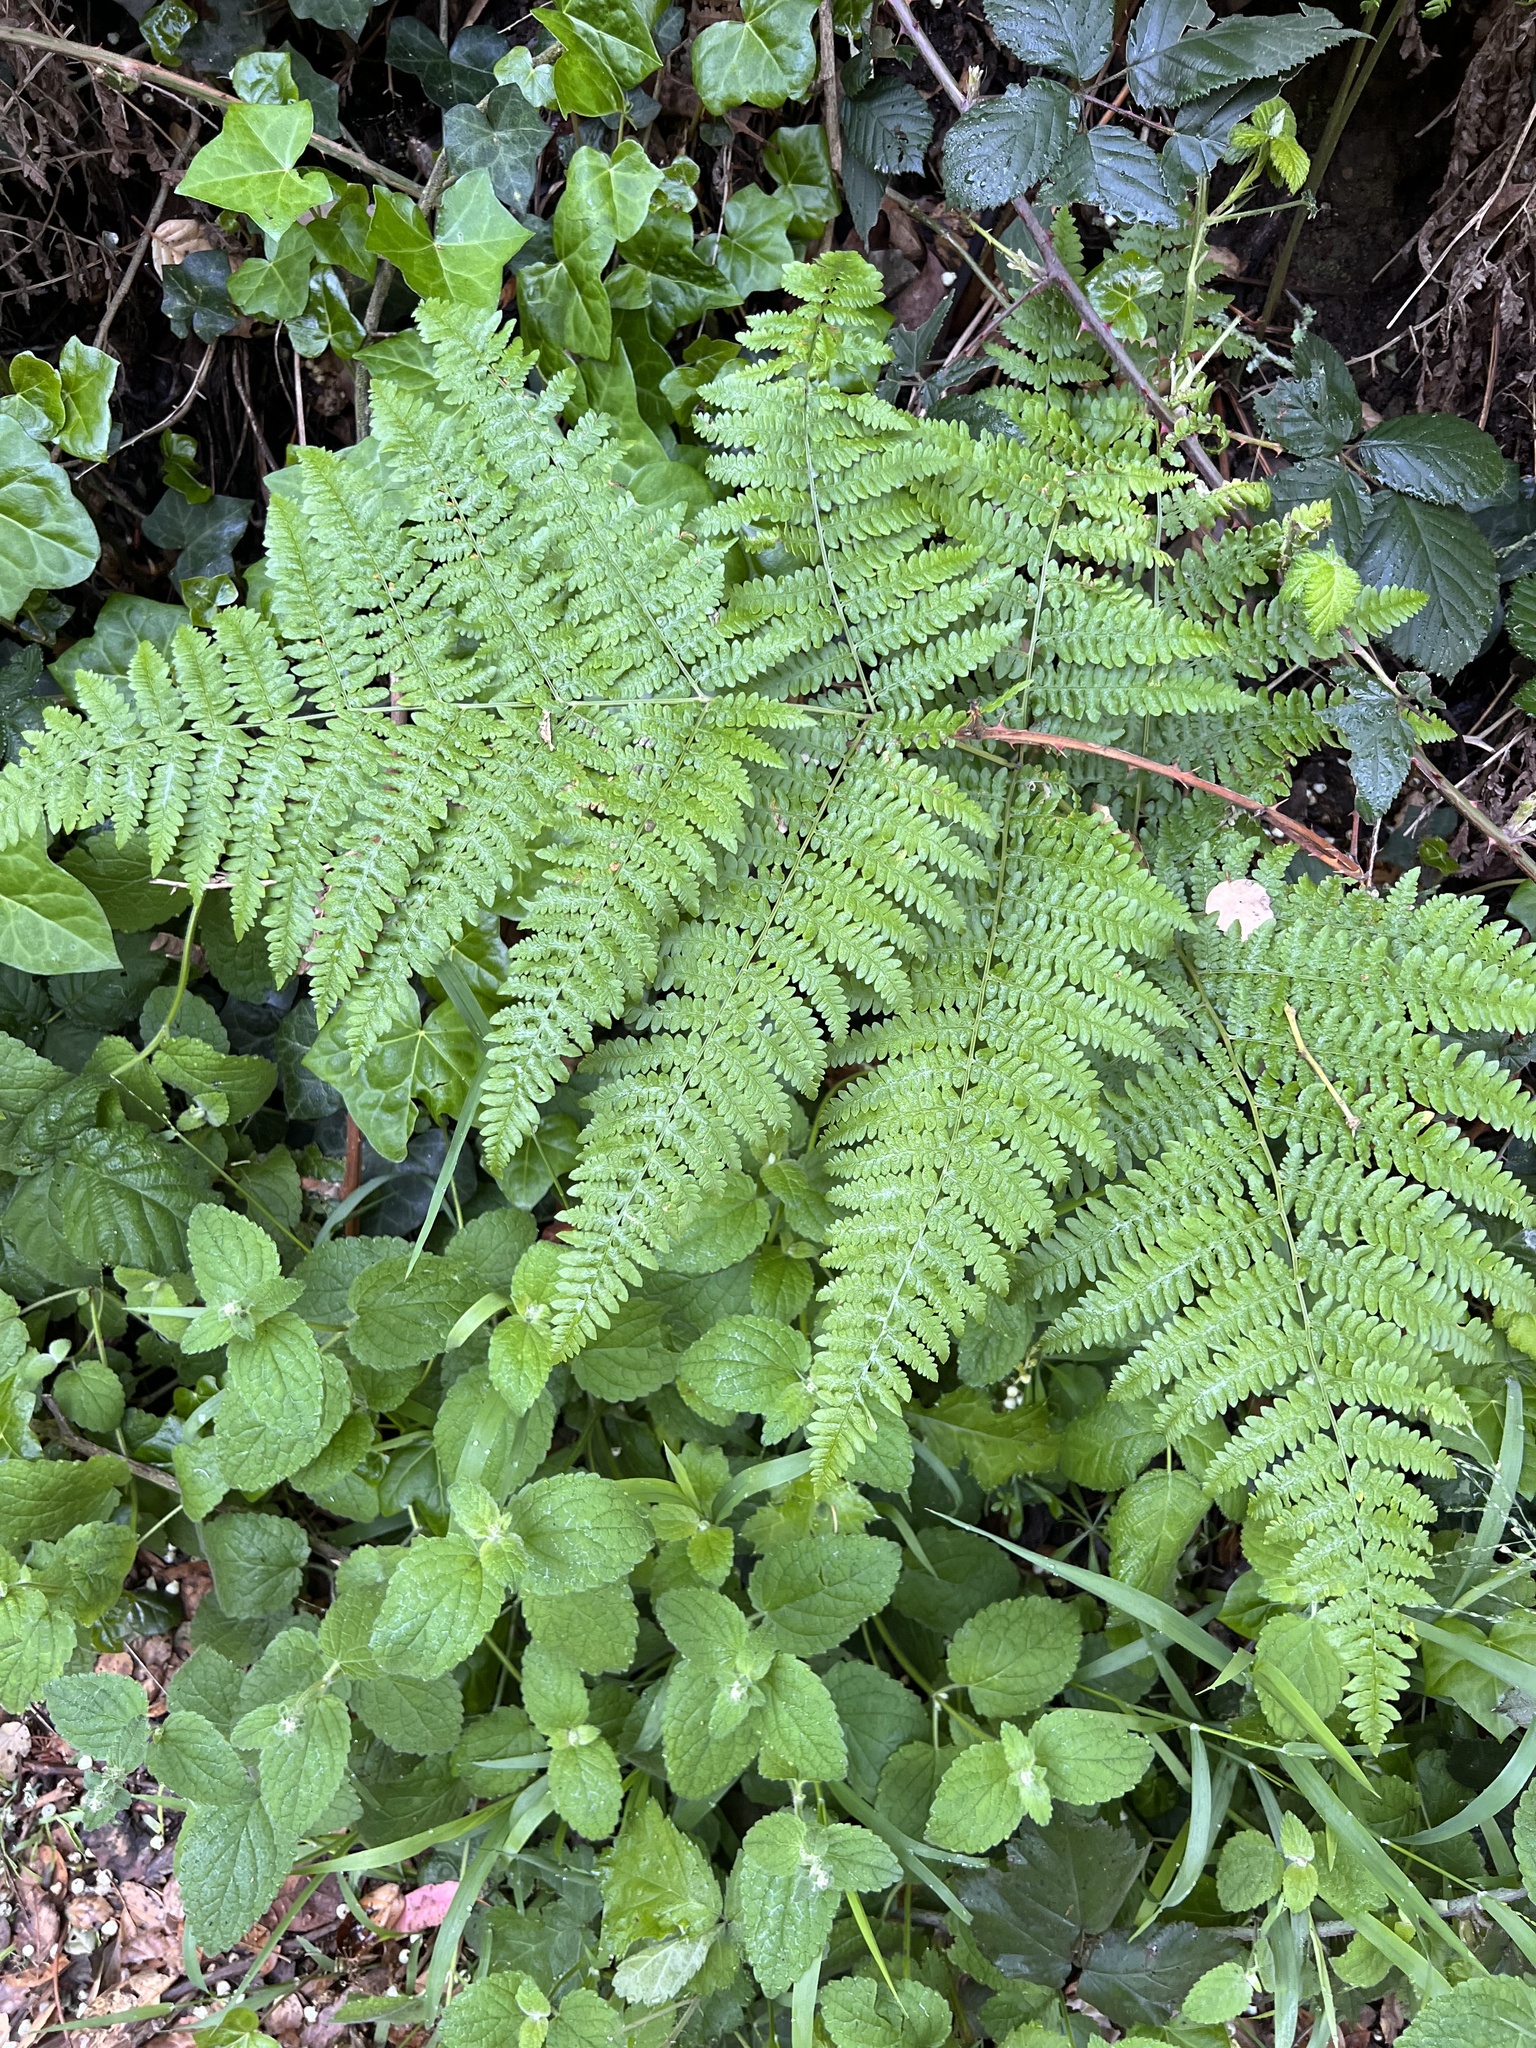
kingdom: Plantae
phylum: Tracheophyta
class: Polypodiopsida
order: Polypodiales
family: Dennstaedtiaceae
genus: Pteridium
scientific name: Pteridium aquilinum
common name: Bracken
